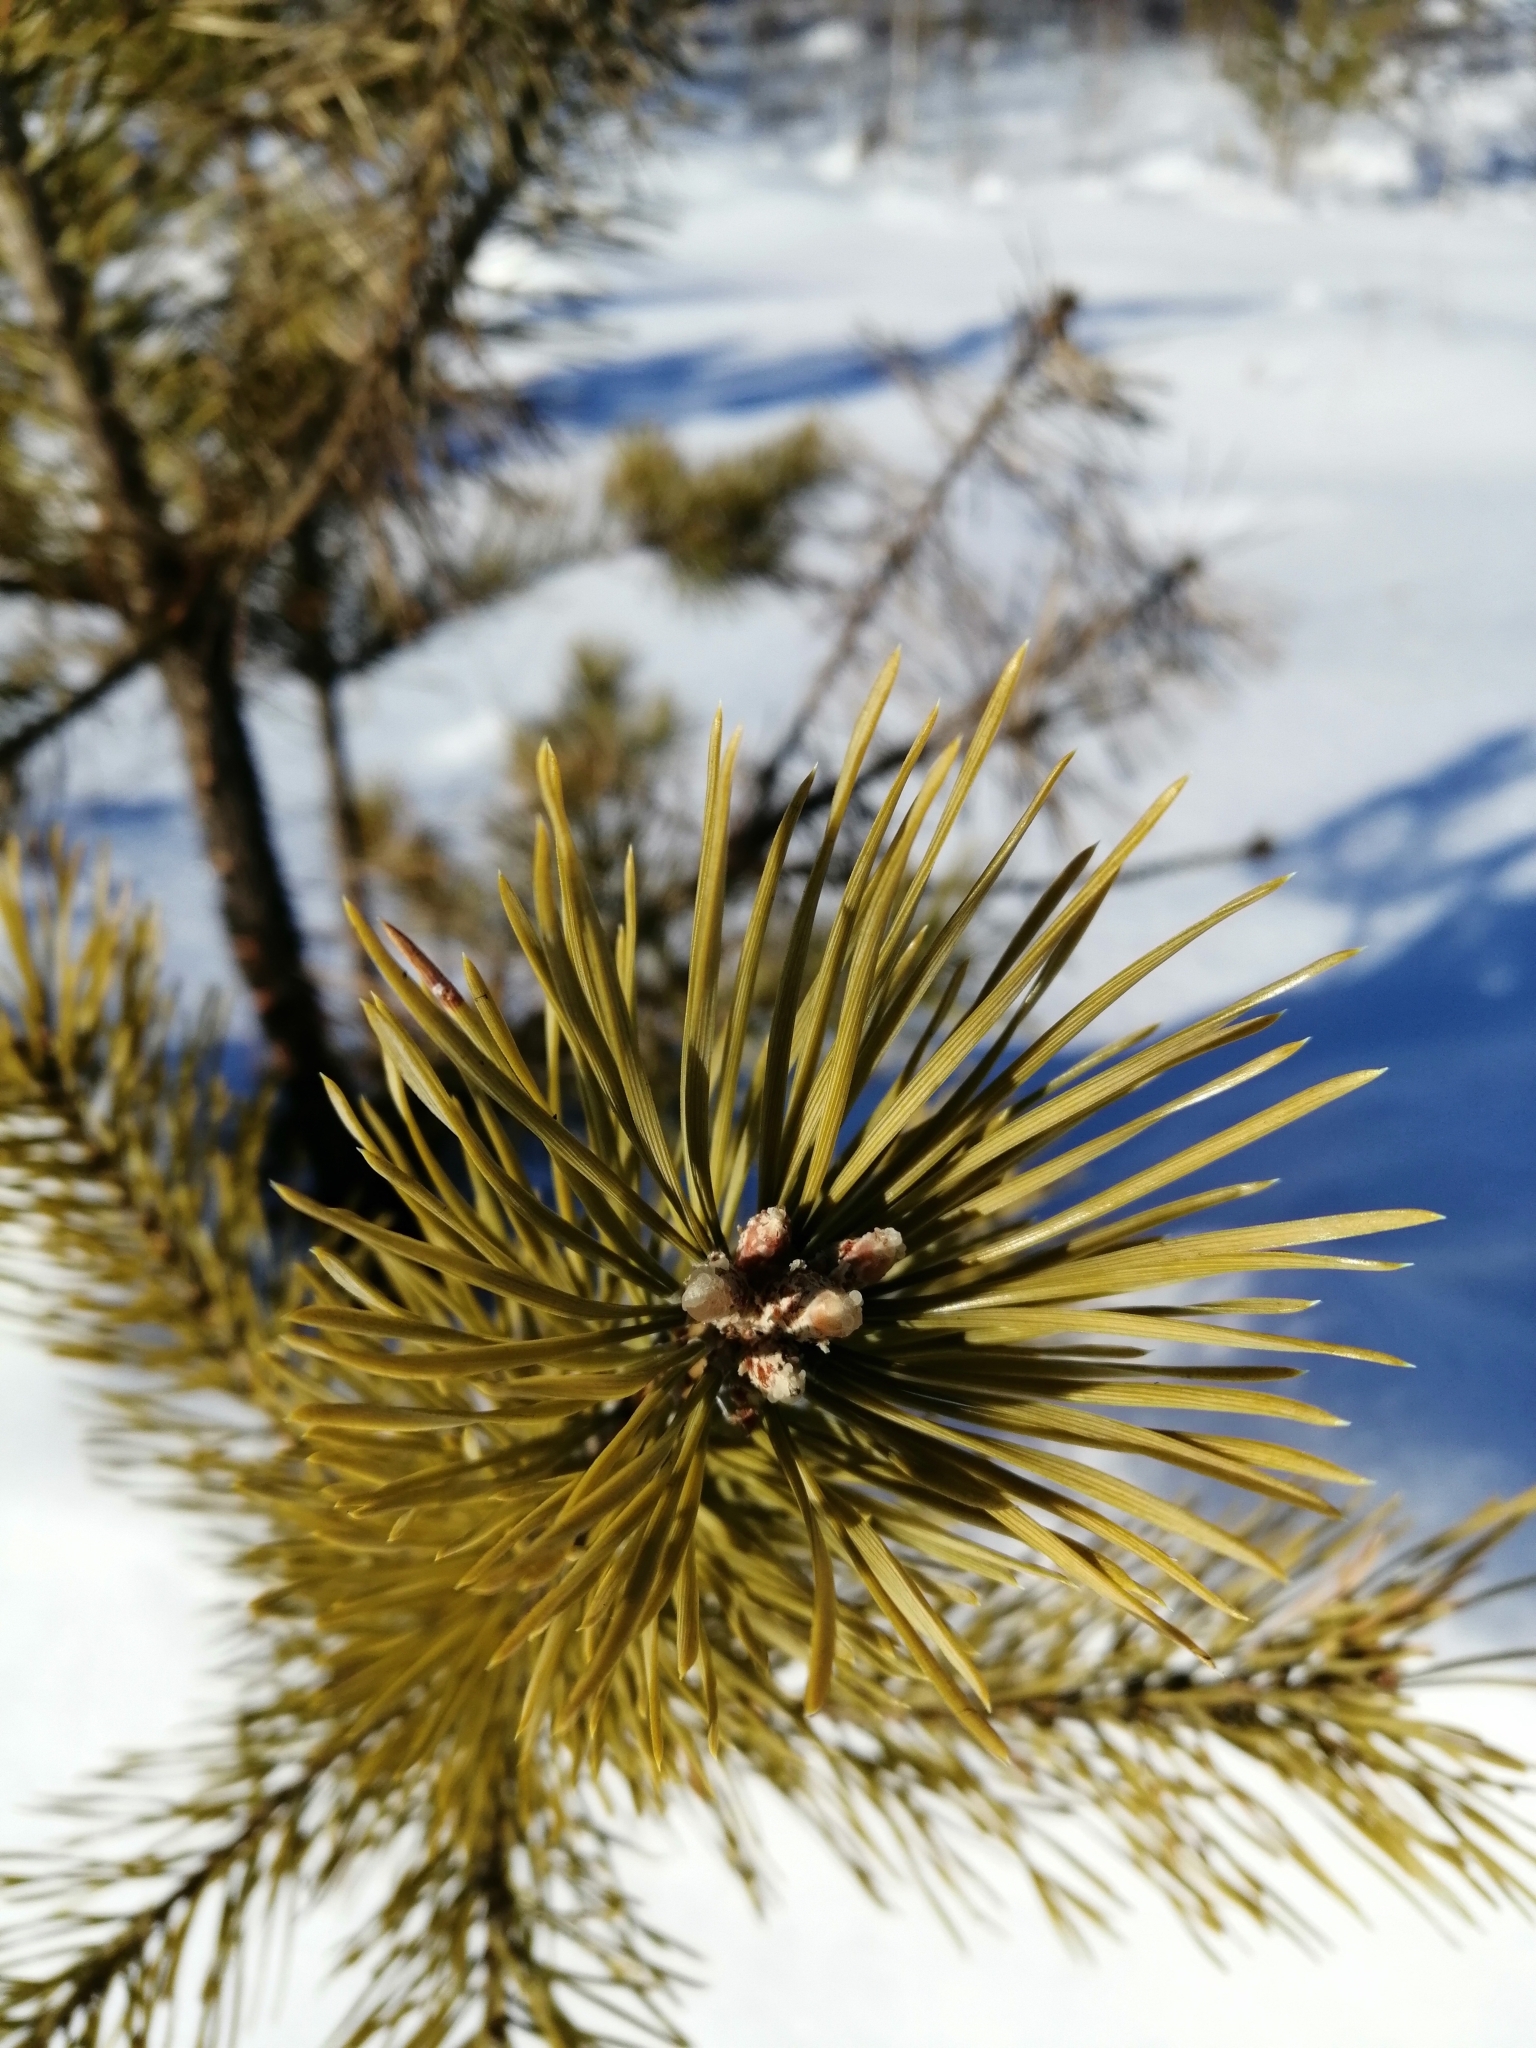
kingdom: Plantae
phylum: Tracheophyta
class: Pinopsida
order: Pinales
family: Pinaceae
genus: Pinus
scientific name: Pinus sylvestris
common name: Scots pine
